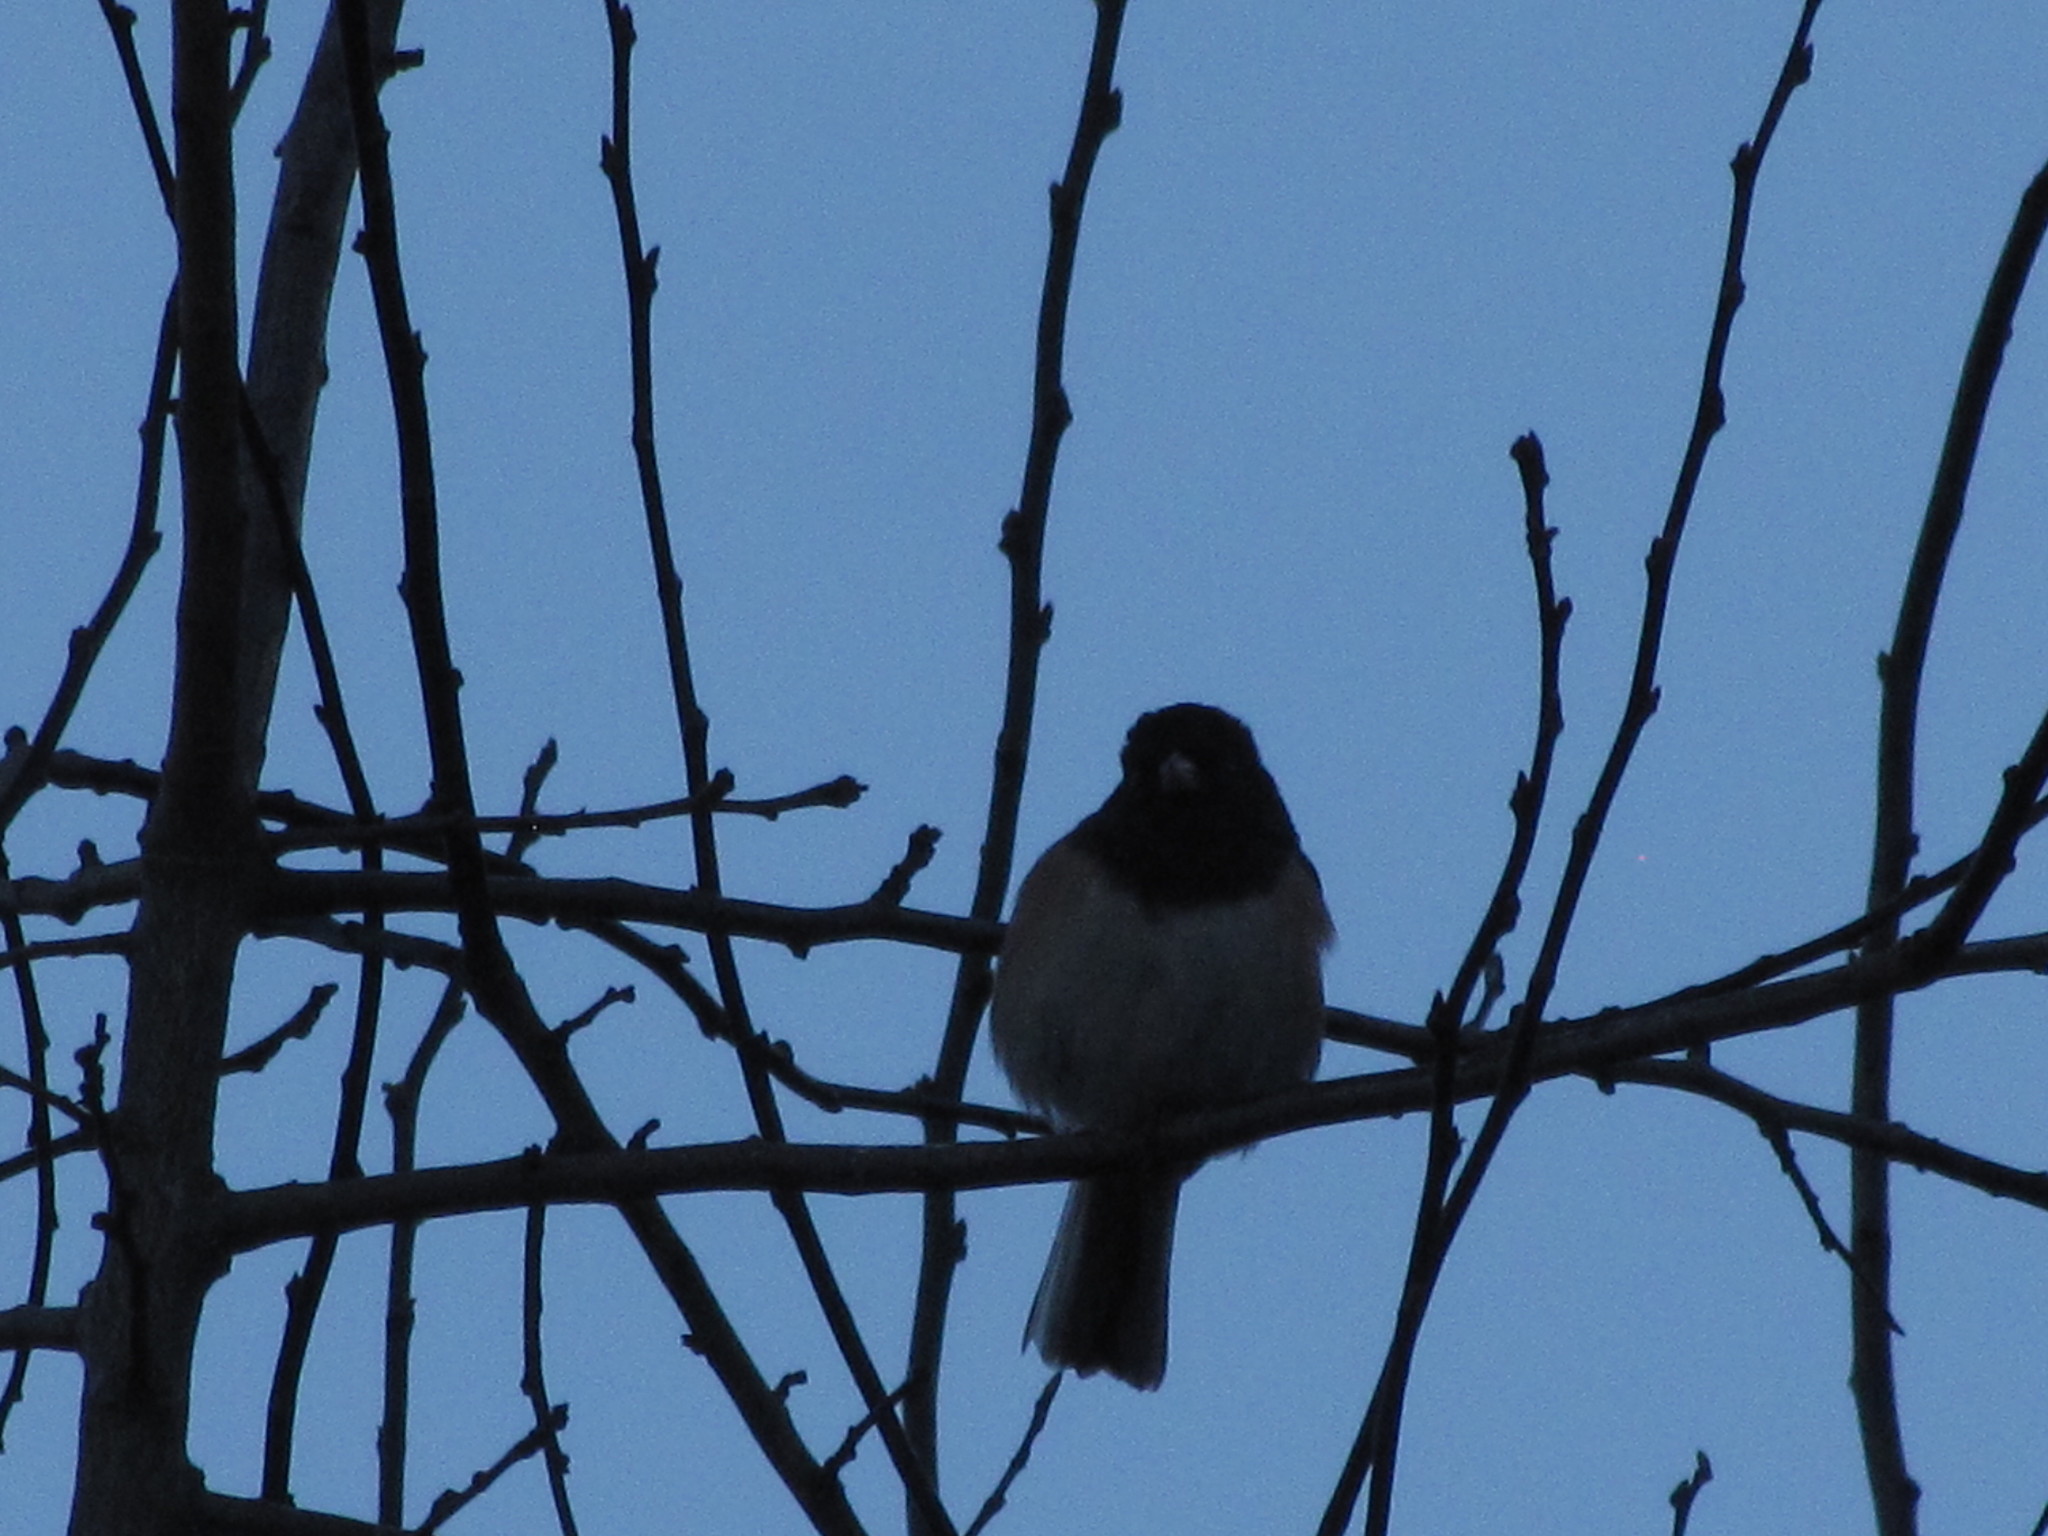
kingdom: Animalia
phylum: Chordata
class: Aves
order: Passeriformes
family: Passerellidae
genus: Junco
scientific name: Junco hyemalis
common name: Dark-eyed junco
